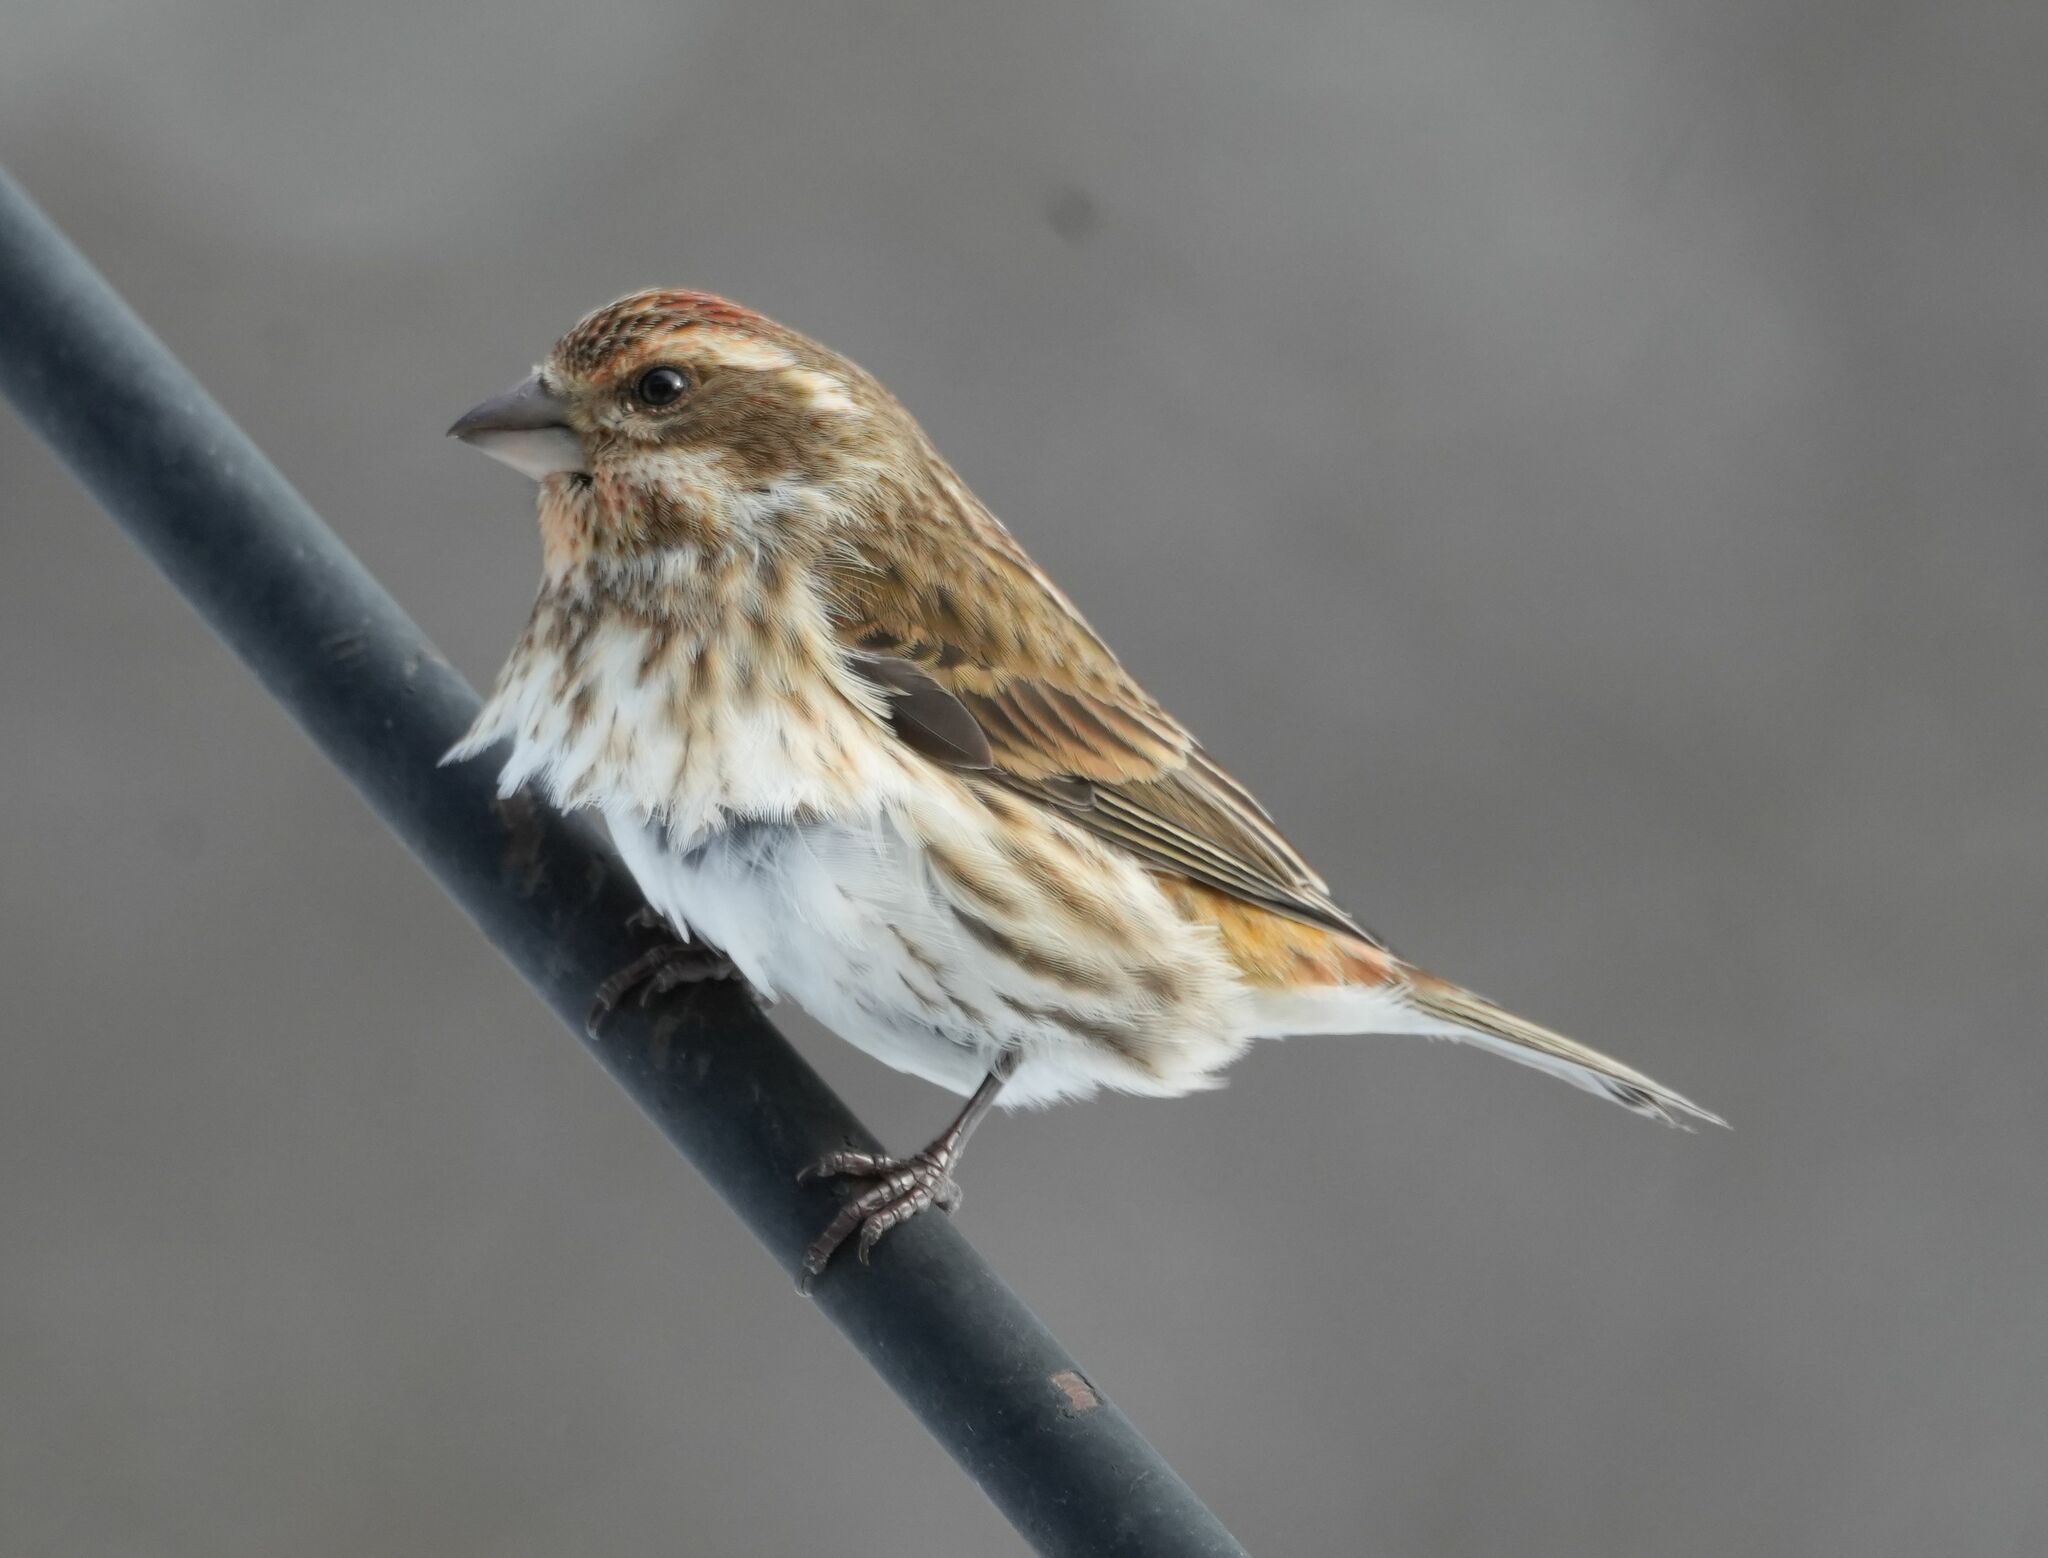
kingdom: Animalia
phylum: Chordata
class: Aves
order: Passeriformes
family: Fringillidae
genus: Haemorhous
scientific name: Haemorhous purpureus
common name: Purple finch
